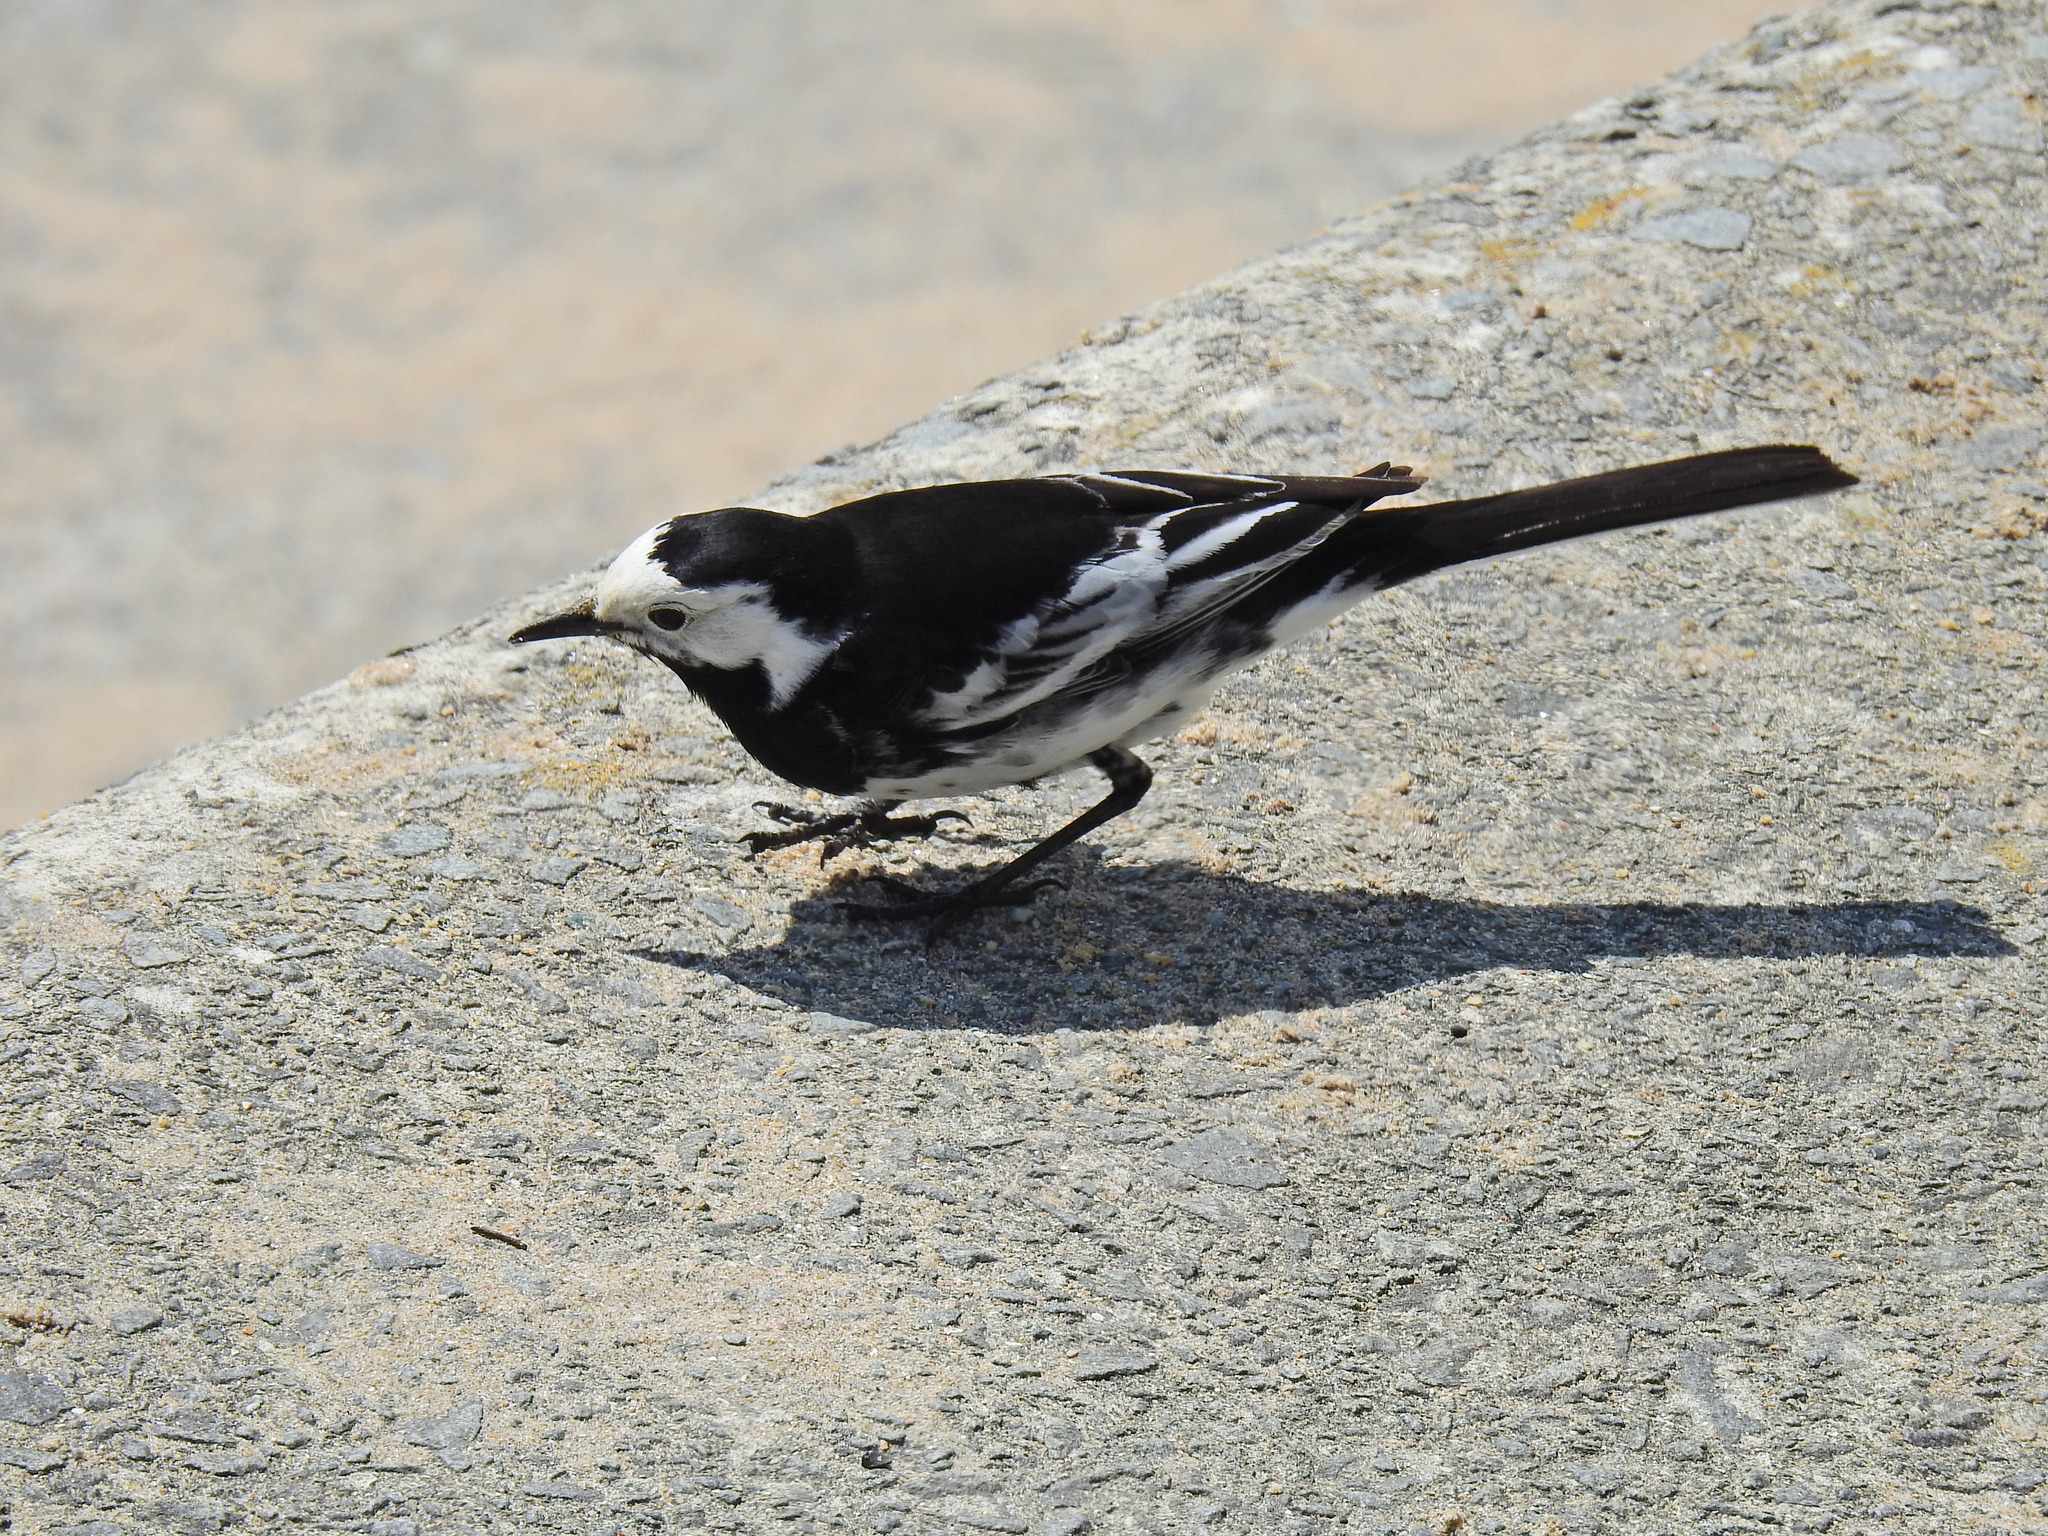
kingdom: Animalia
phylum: Chordata
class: Aves
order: Passeriformes
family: Motacillidae
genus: Motacilla
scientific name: Motacilla alba
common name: White wagtail
